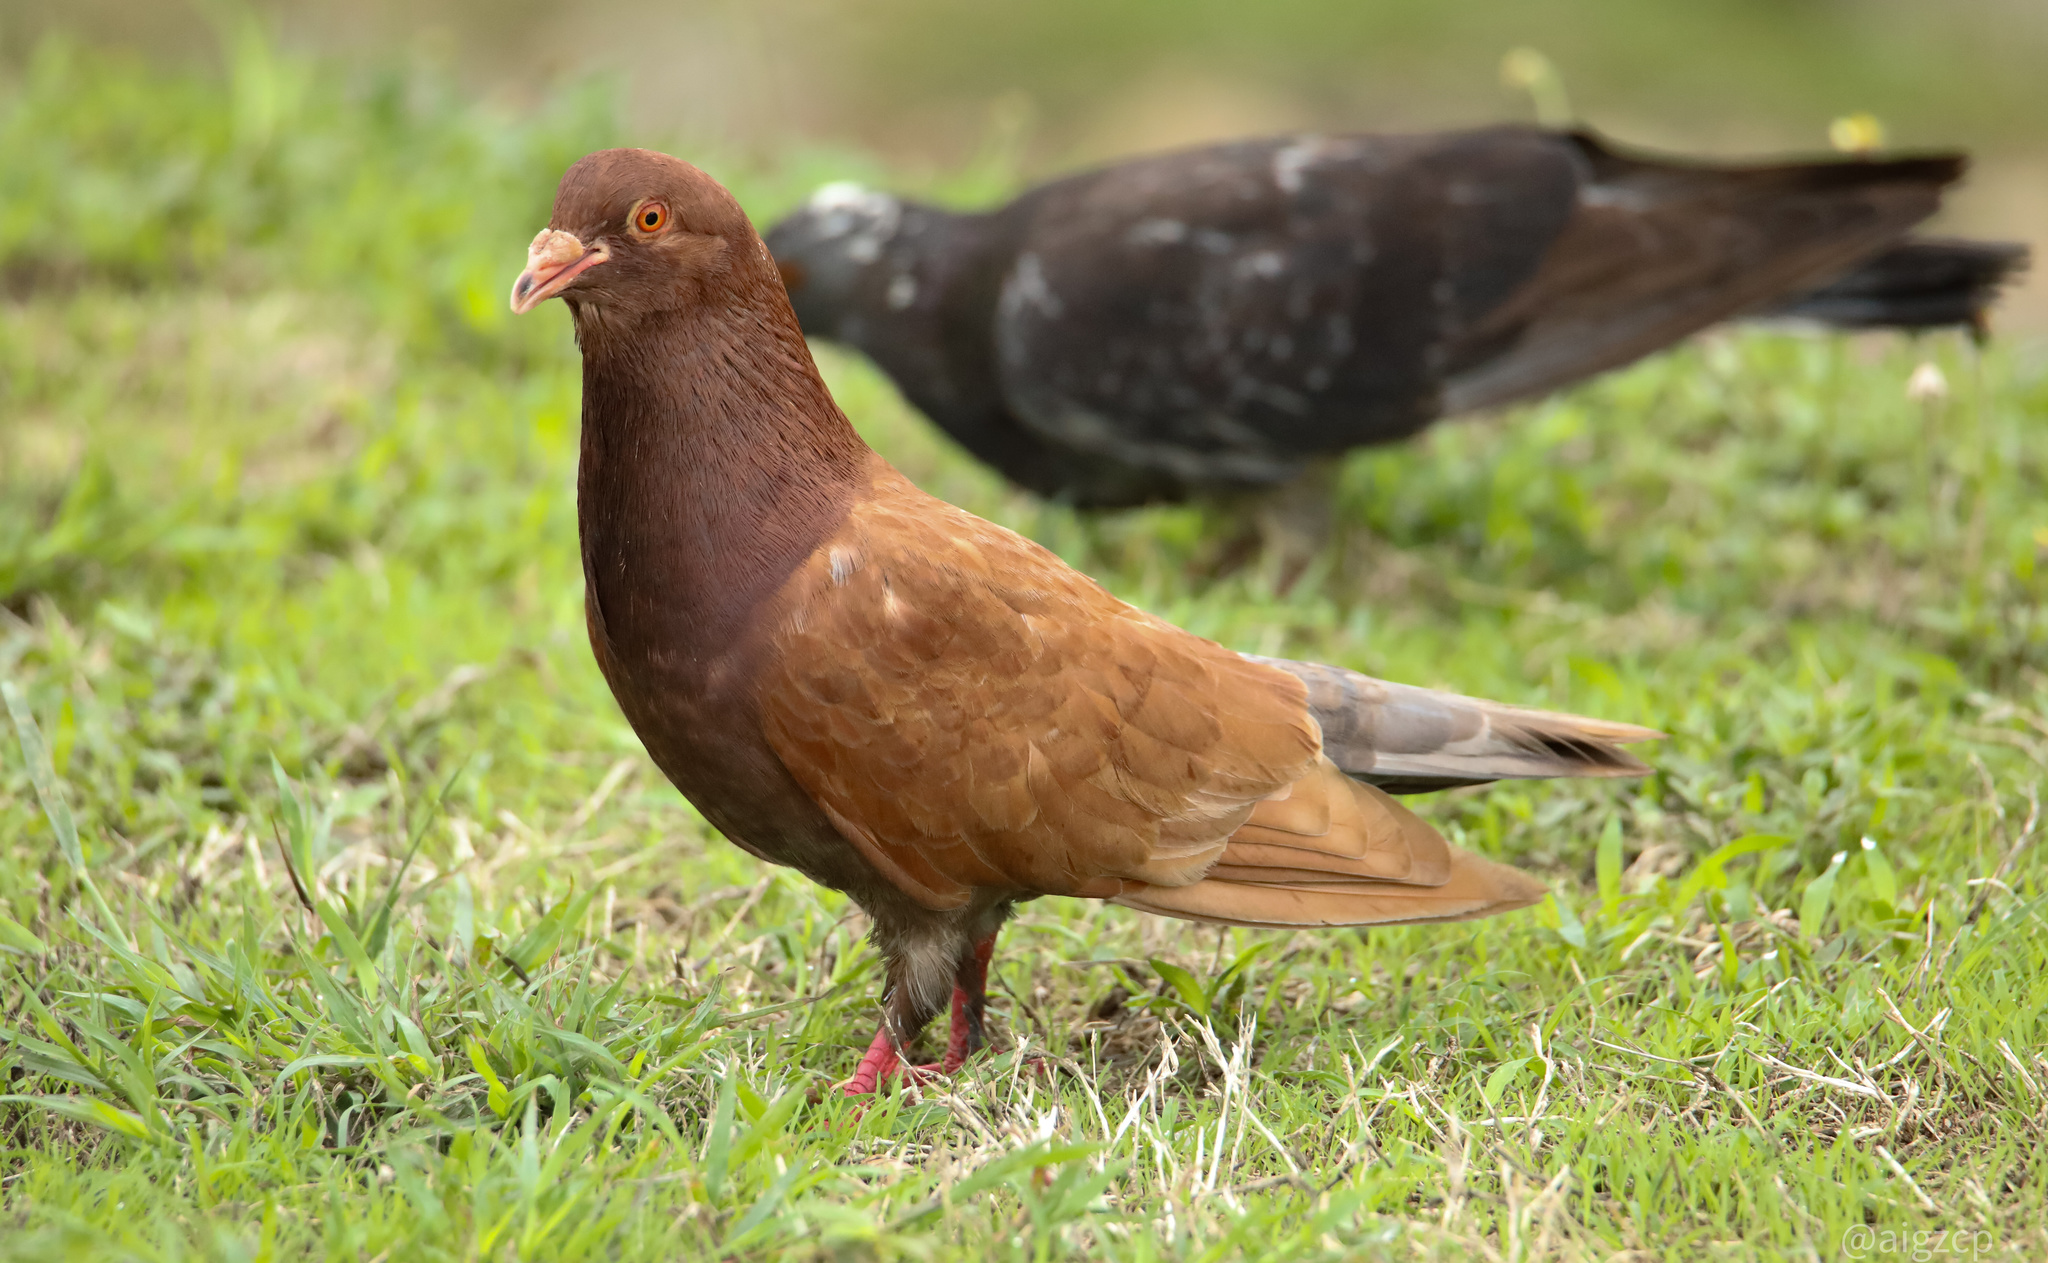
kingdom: Animalia
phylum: Chordata
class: Aves
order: Columbiformes
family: Columbidae
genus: Columba
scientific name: Columba livia
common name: Rock pigeon
